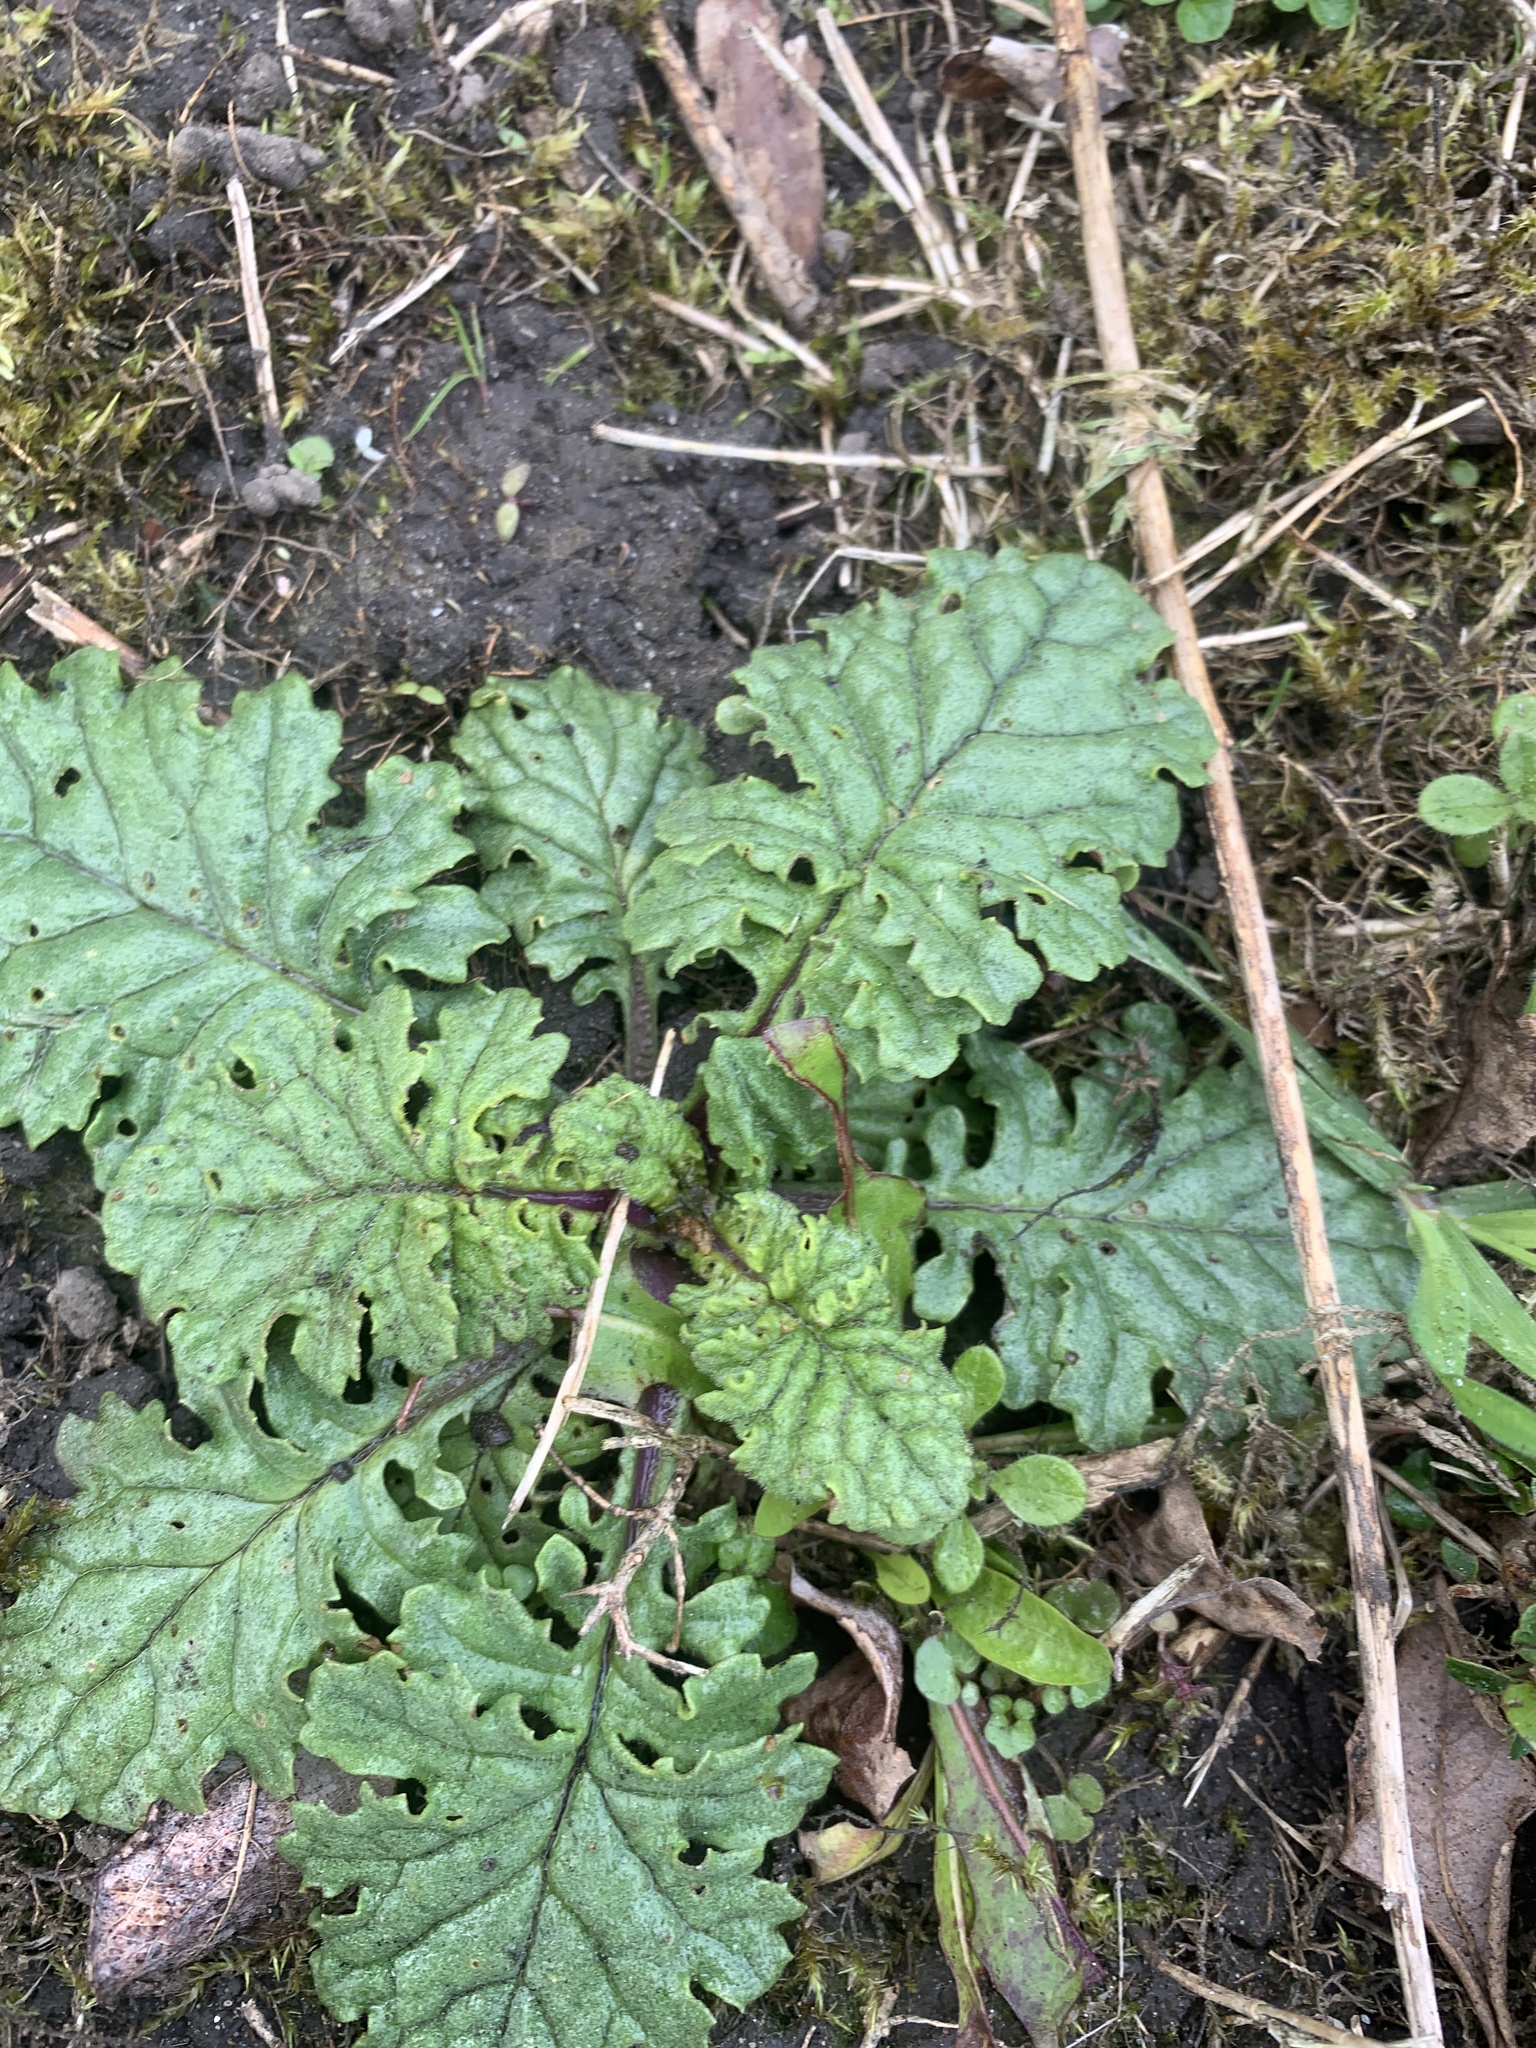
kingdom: Plantae
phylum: Tracheophyta
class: Magnoliopsida
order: Asterales
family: Asteraceae
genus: Jacobaea
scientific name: Jacobaea vulgaris
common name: Stinking willie
